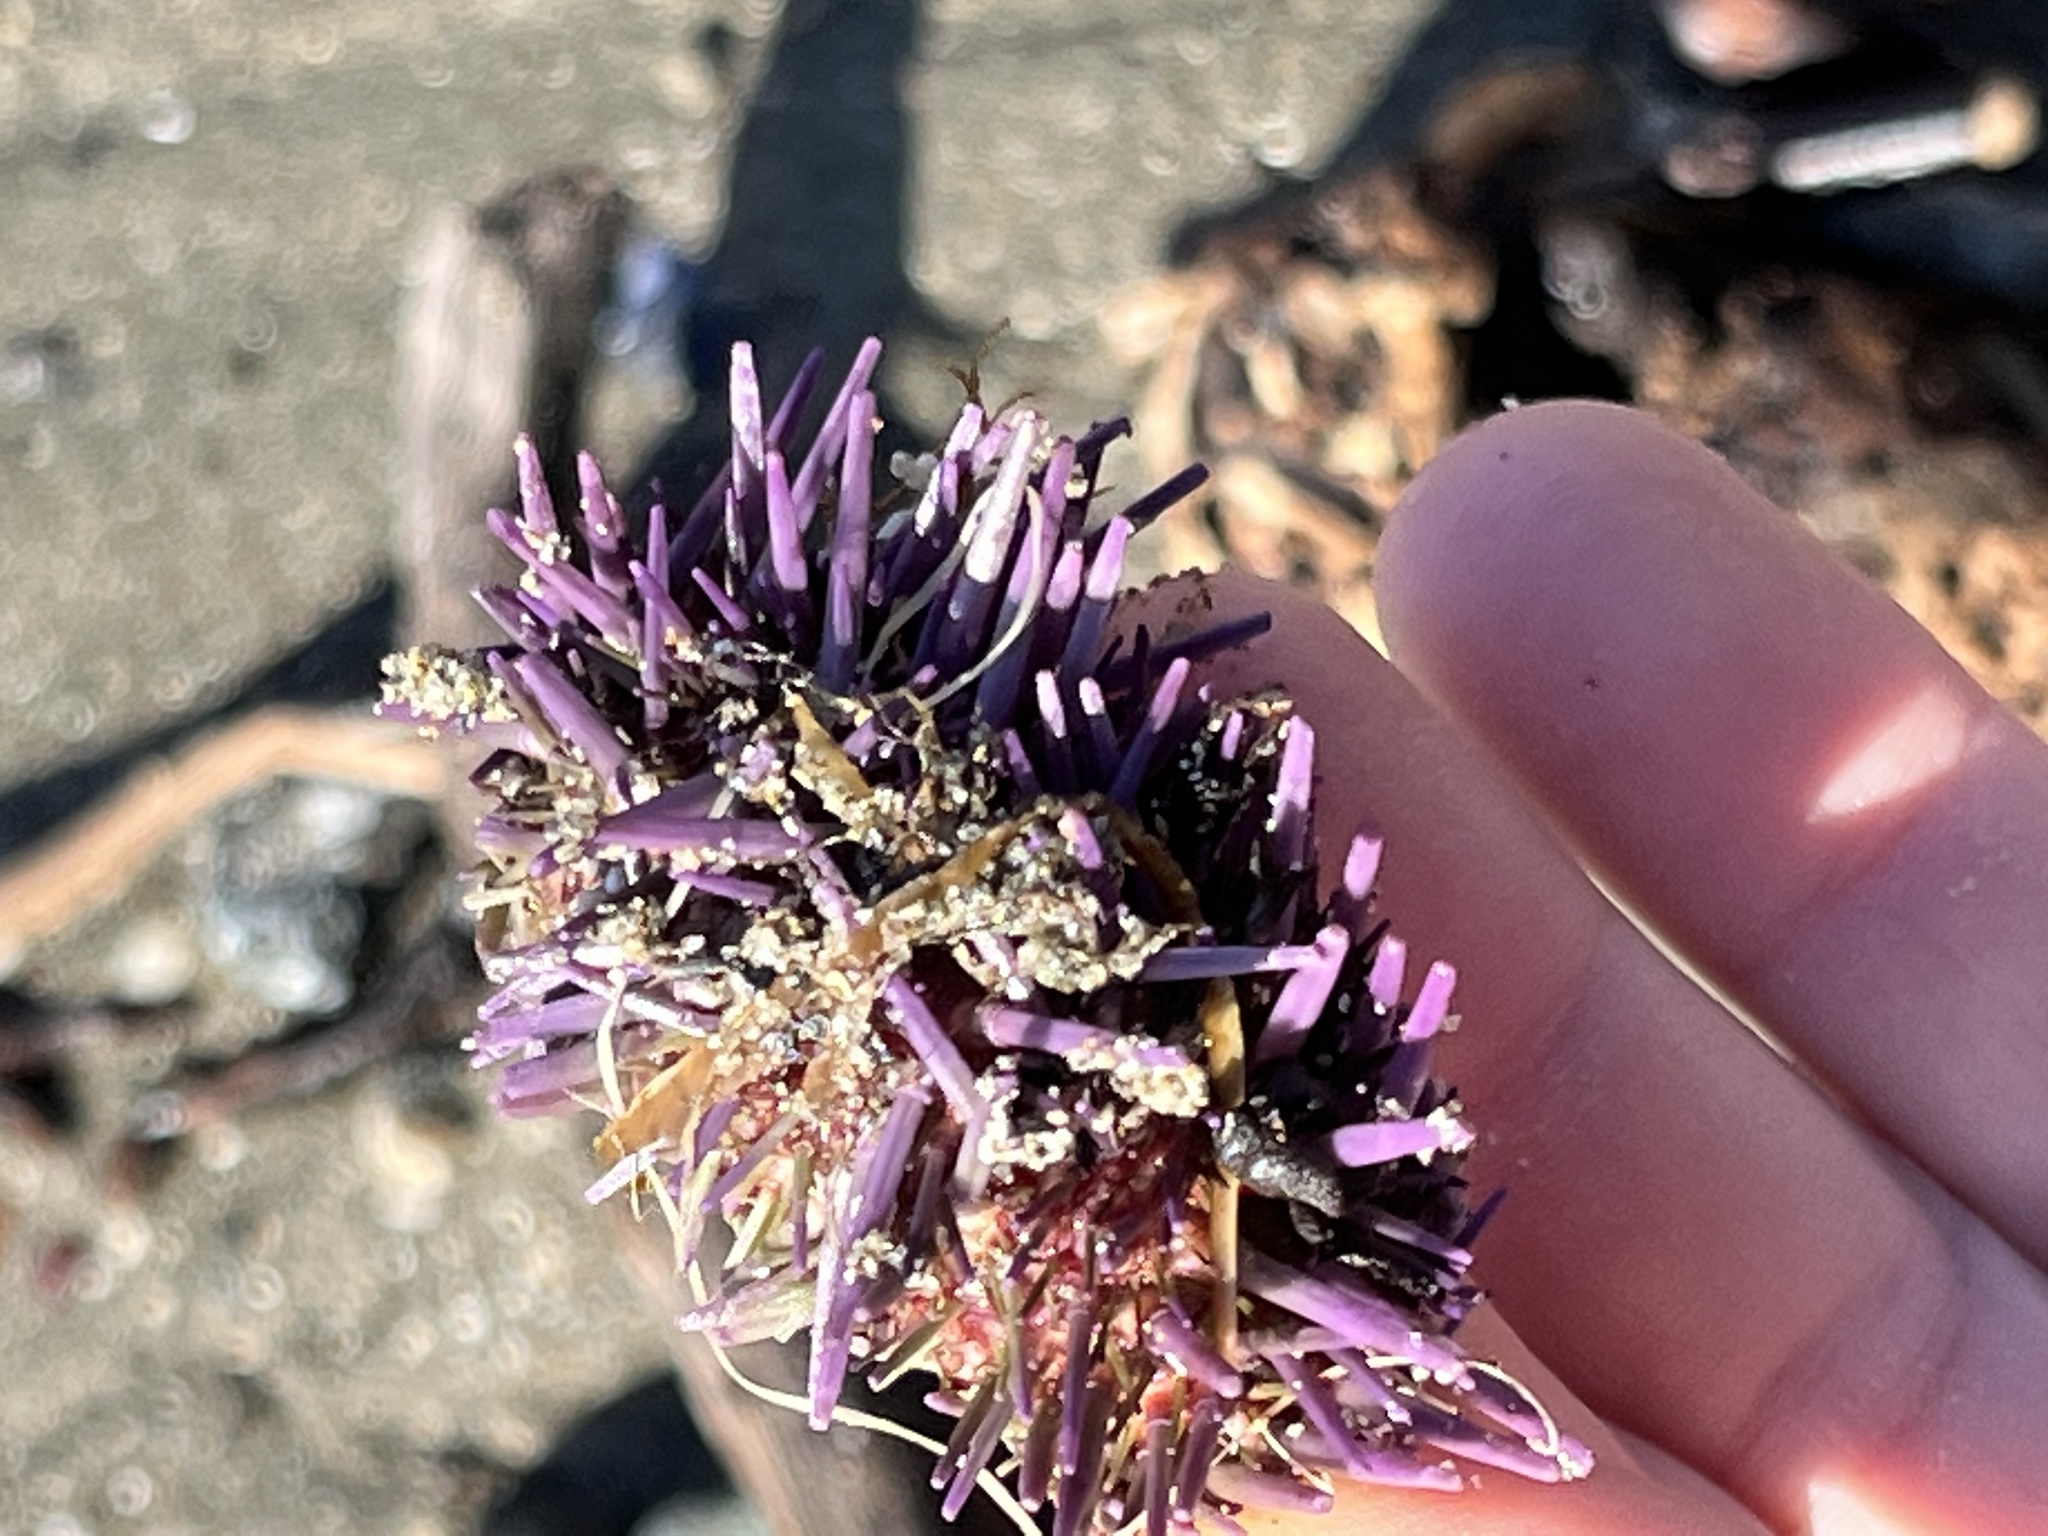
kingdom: Animalia
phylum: Echinodermata
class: Echinoidea
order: Camarodonta
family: Strongylocentrotidae
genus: Strongylocentrotus
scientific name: Strongylocentrotus purpuratus
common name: Purple sea urchin
